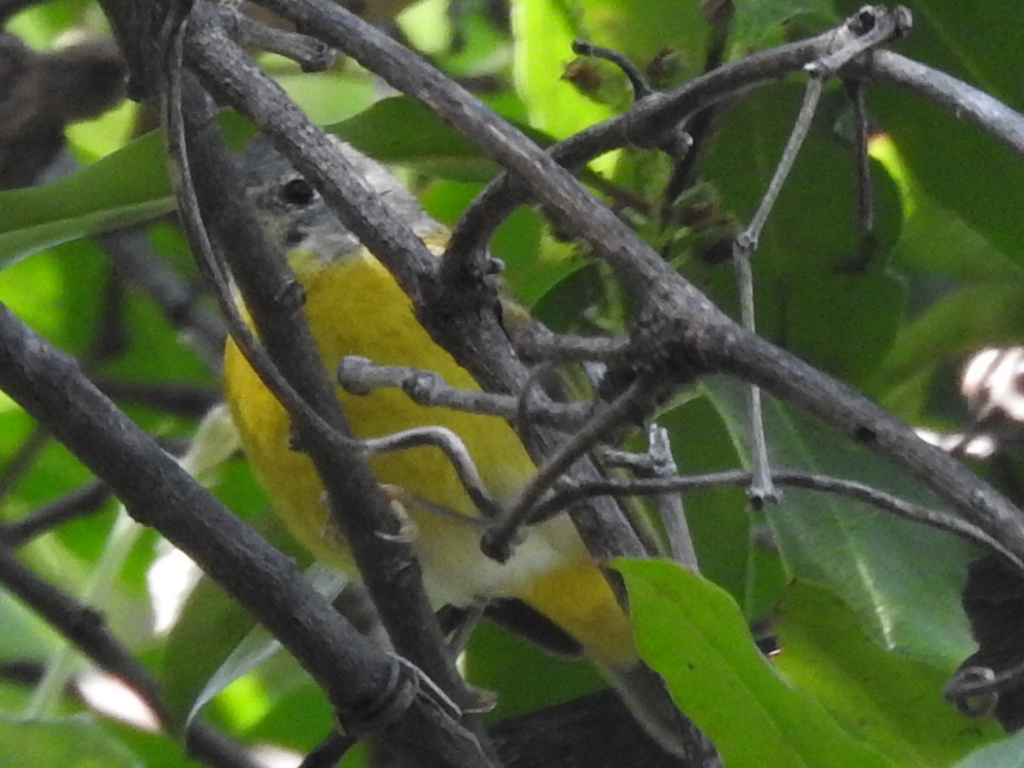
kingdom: Animalia
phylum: Chordata
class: Aves
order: Passeriformes
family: Parulidae
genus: Leiothlypis
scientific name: Leiothlypis ruficapilla
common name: Nashville warbler
